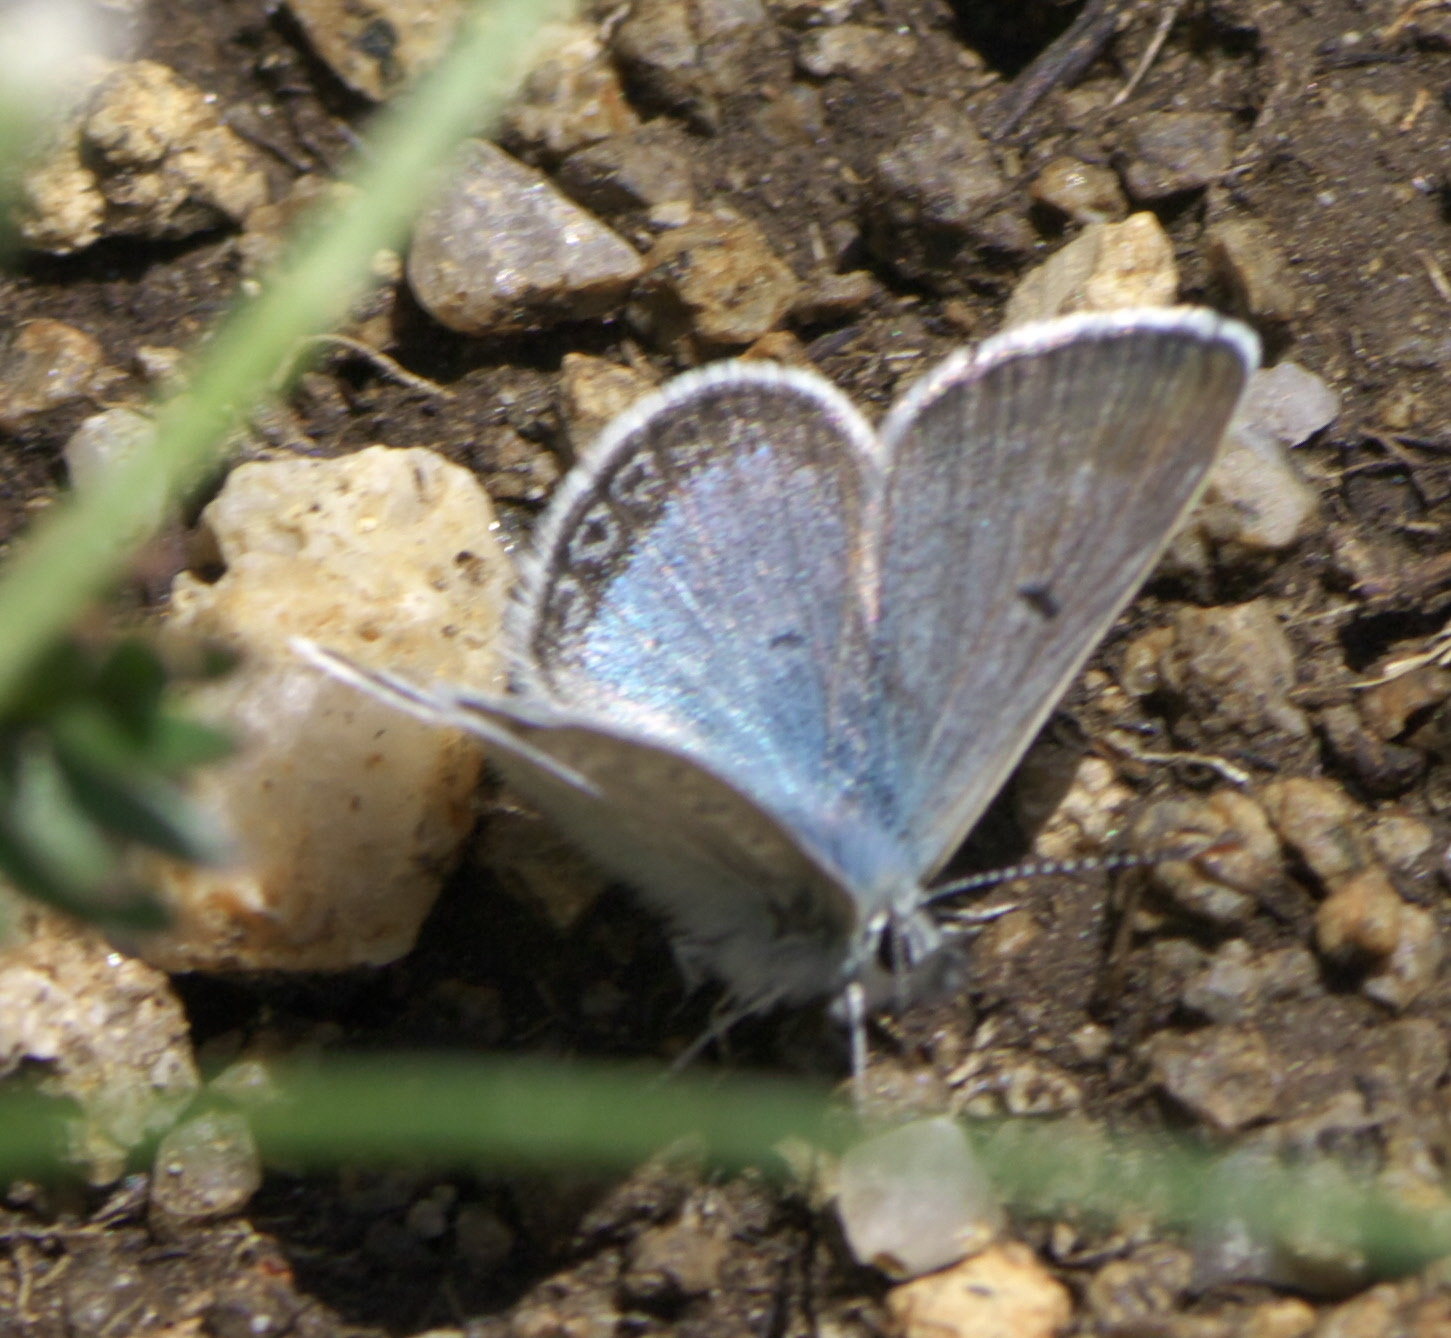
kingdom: Animalia
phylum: Arthropoda
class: Insecta
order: Lepidoptera
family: Lycaenidae
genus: Agriades
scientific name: Agriades glandon
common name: Glandon blue
